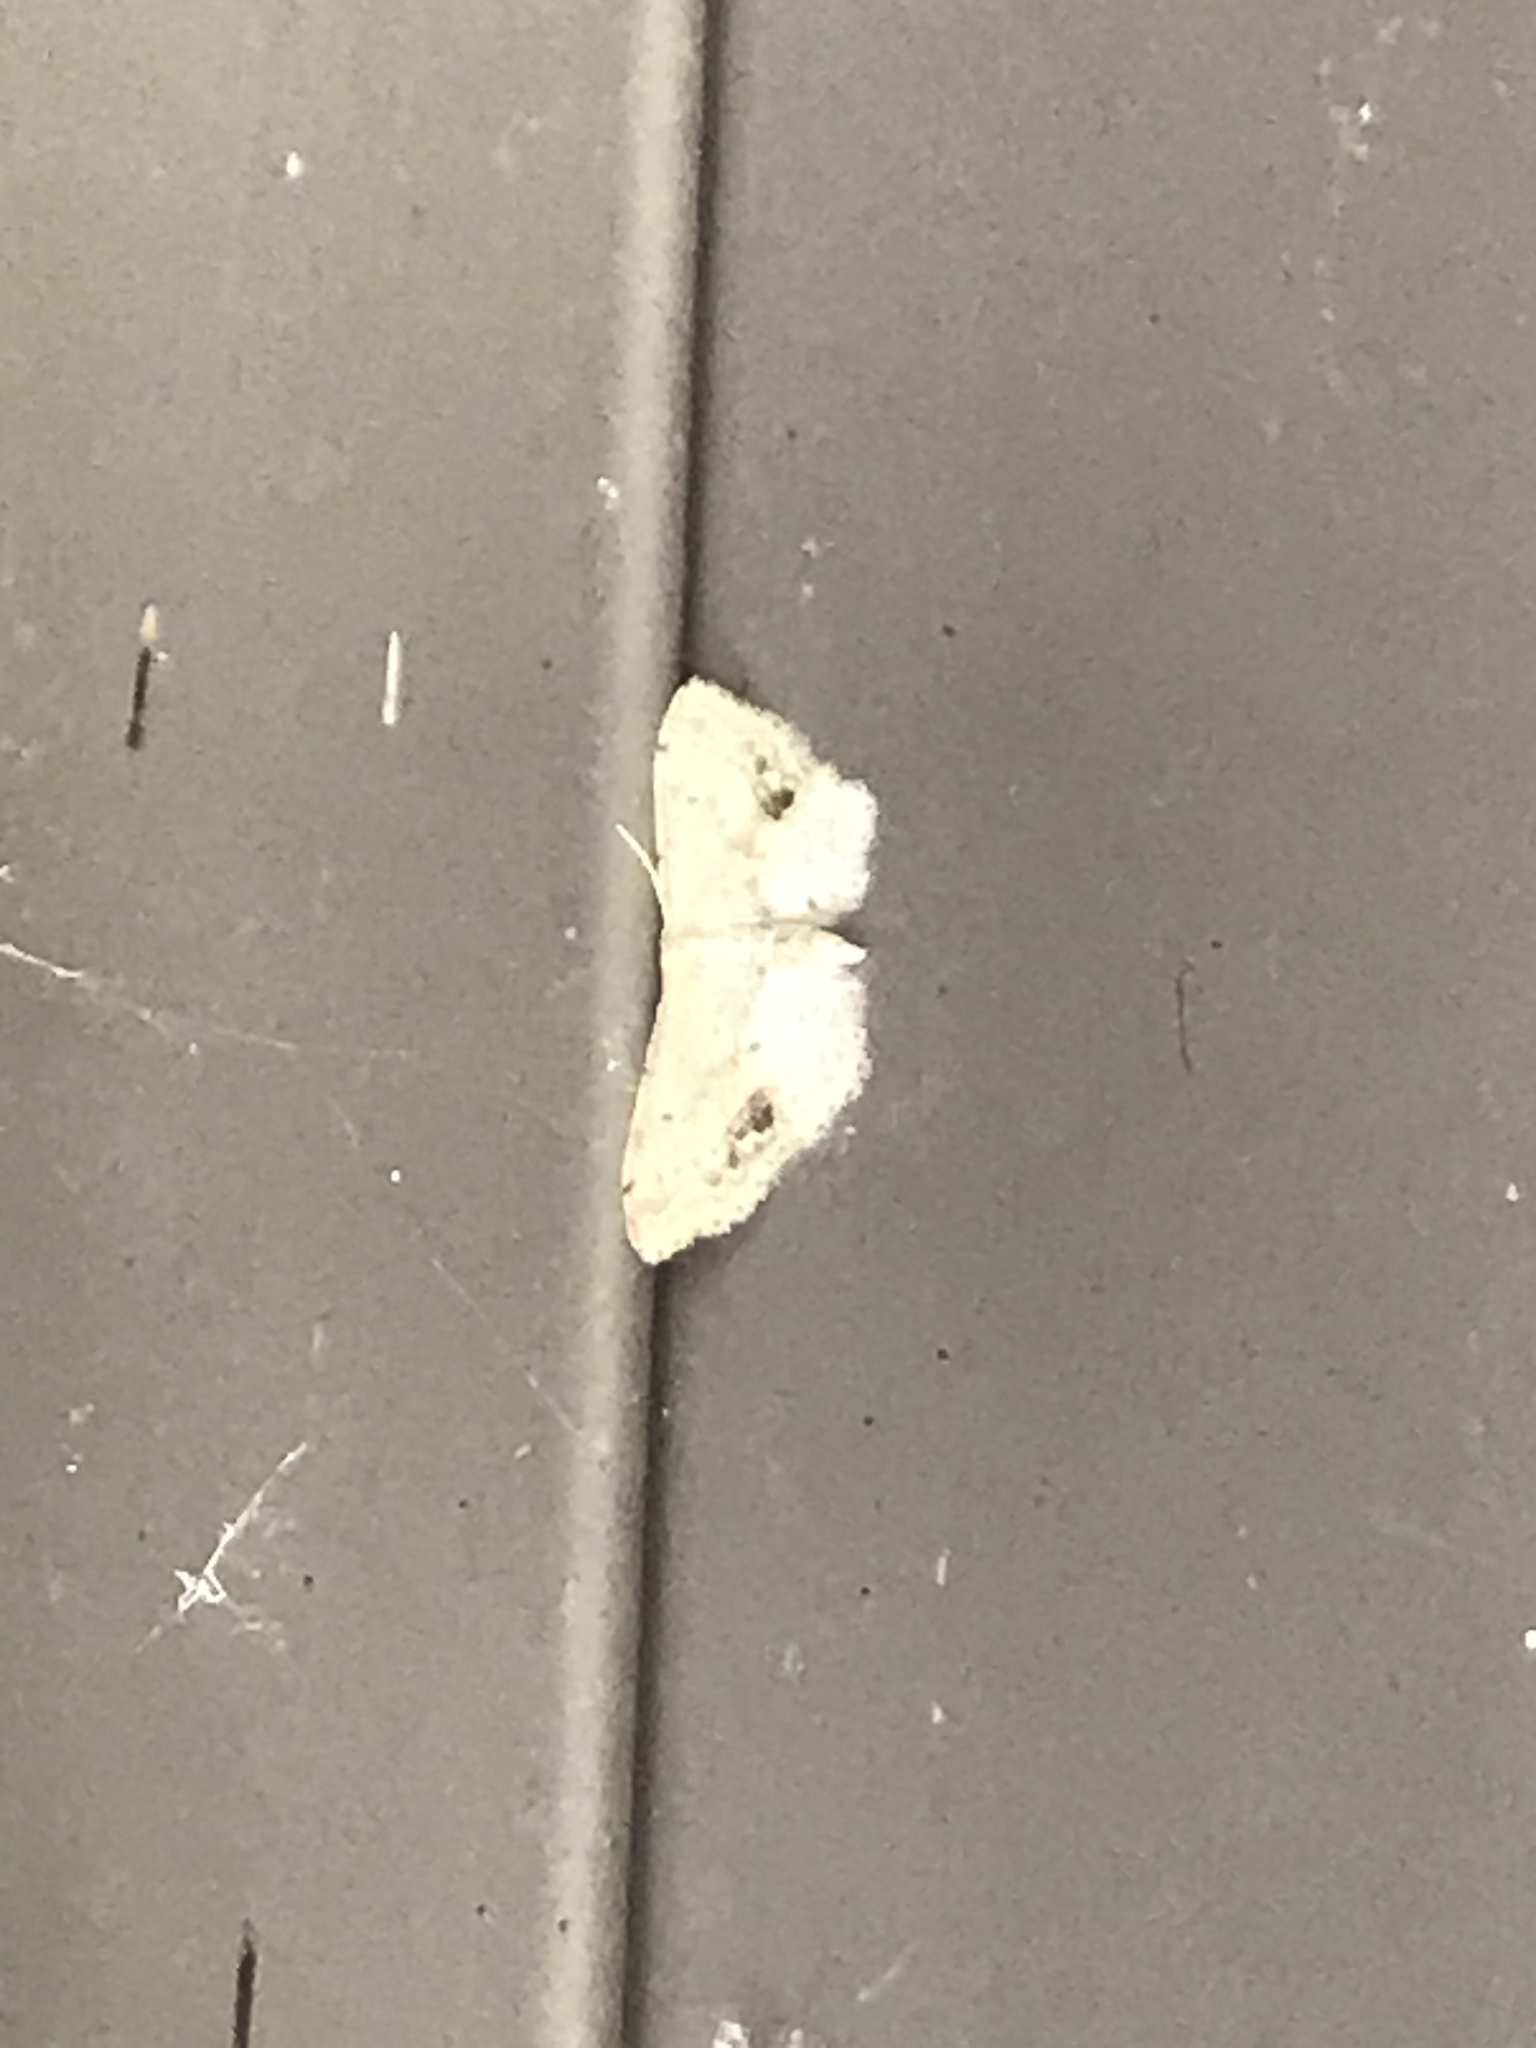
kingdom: Animalia
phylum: Arthropoda
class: Insecta
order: Lepidoptera
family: Geometridae
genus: Idaea
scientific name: Idaea dimidiata
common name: Single-dotted wave
